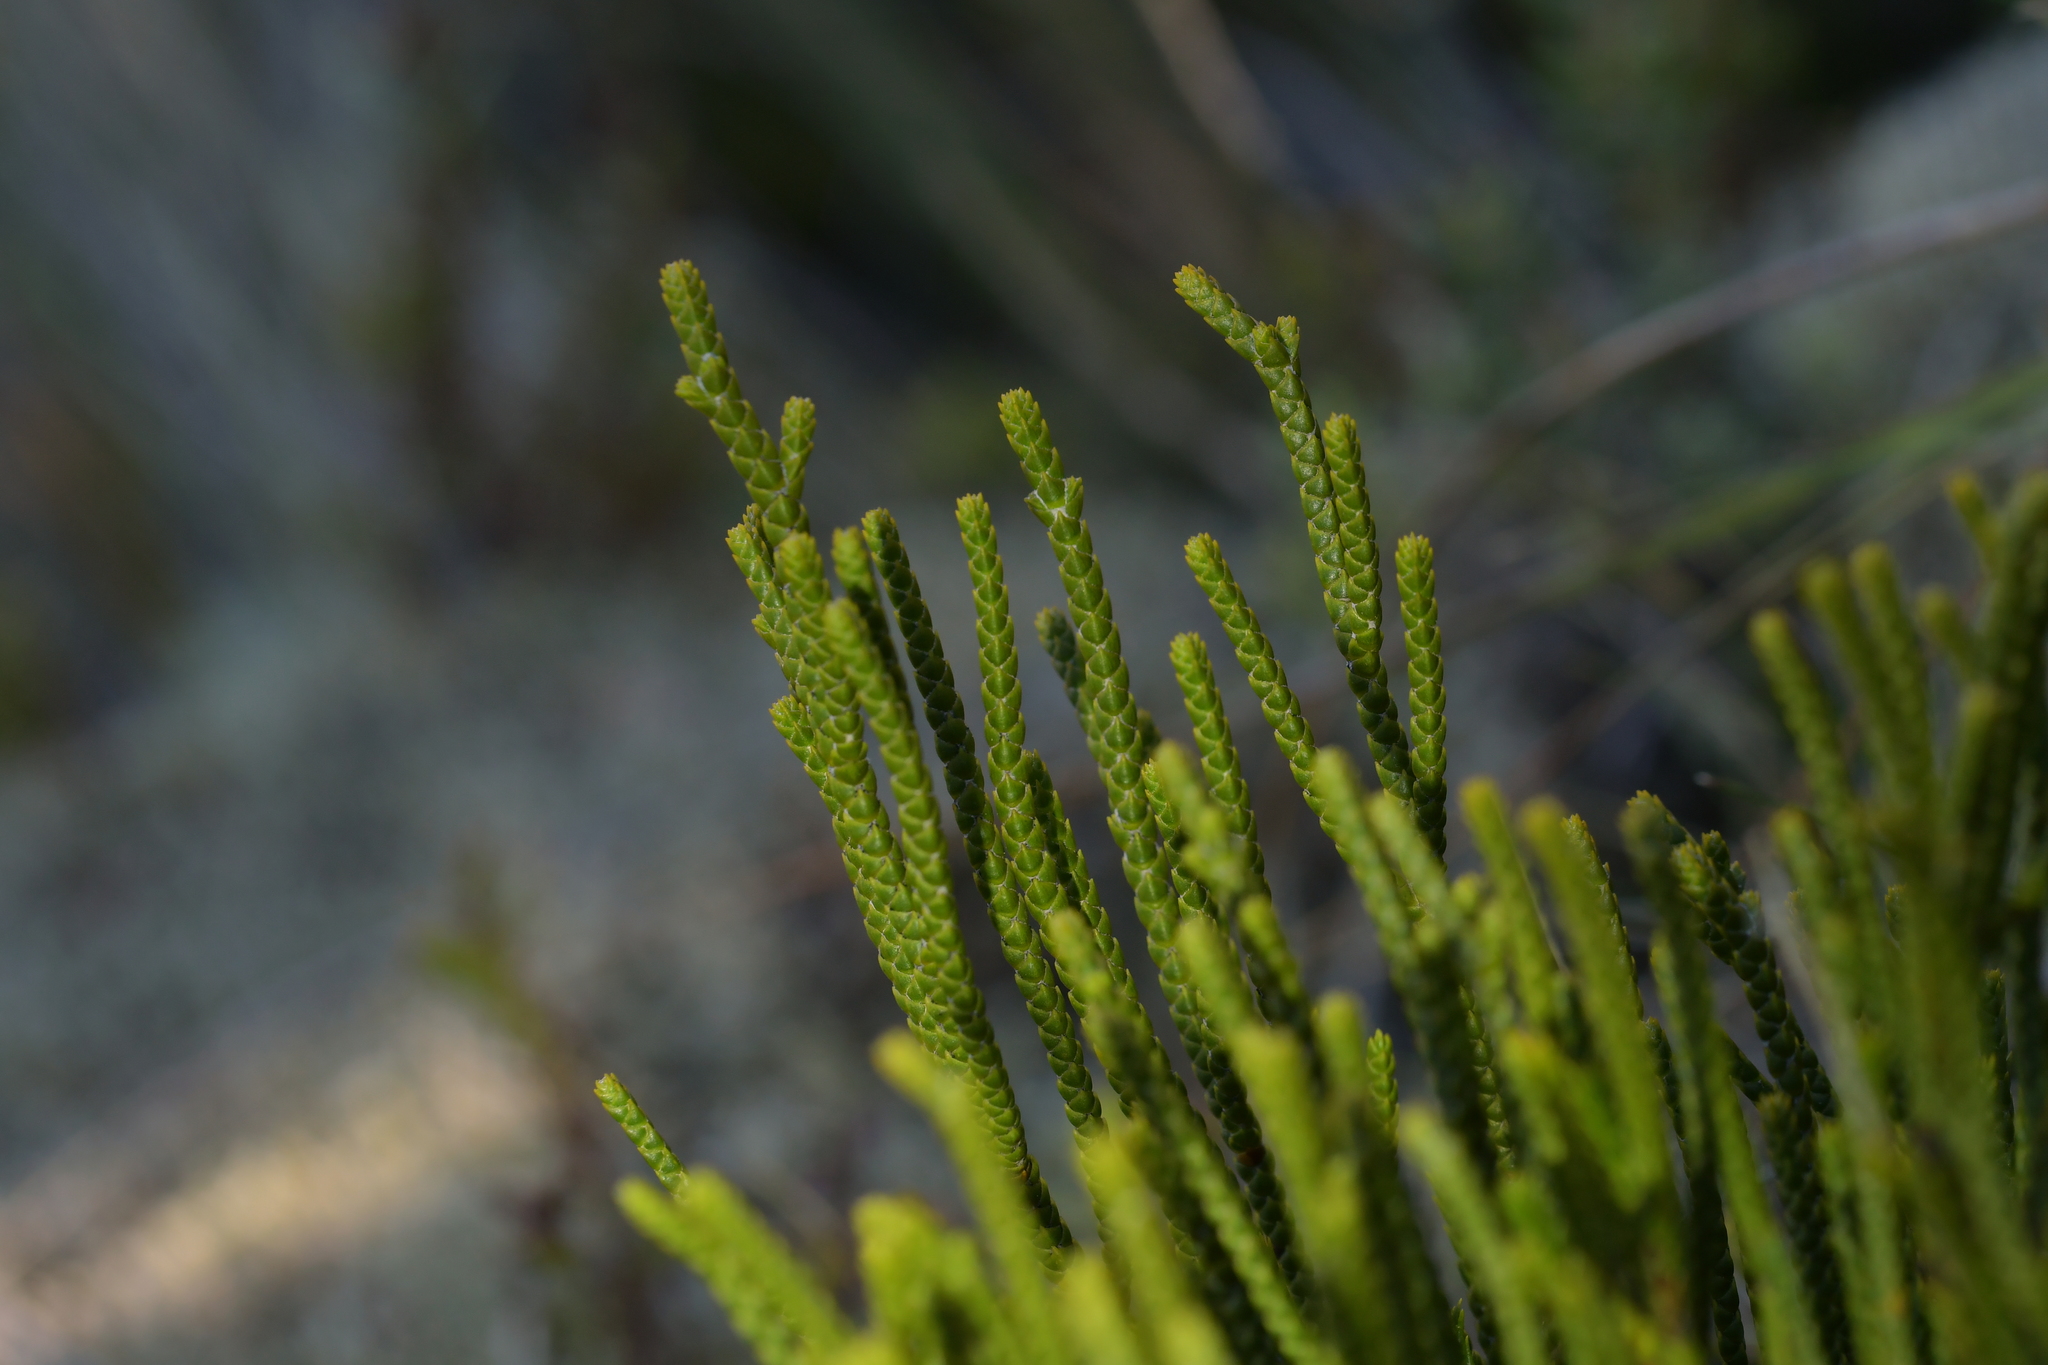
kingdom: Plantae
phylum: Tracheophyta
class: Magnoliopsida
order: Lamiales
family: Plantaginaceae
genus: Veronica
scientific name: Veronica lycopodioides
